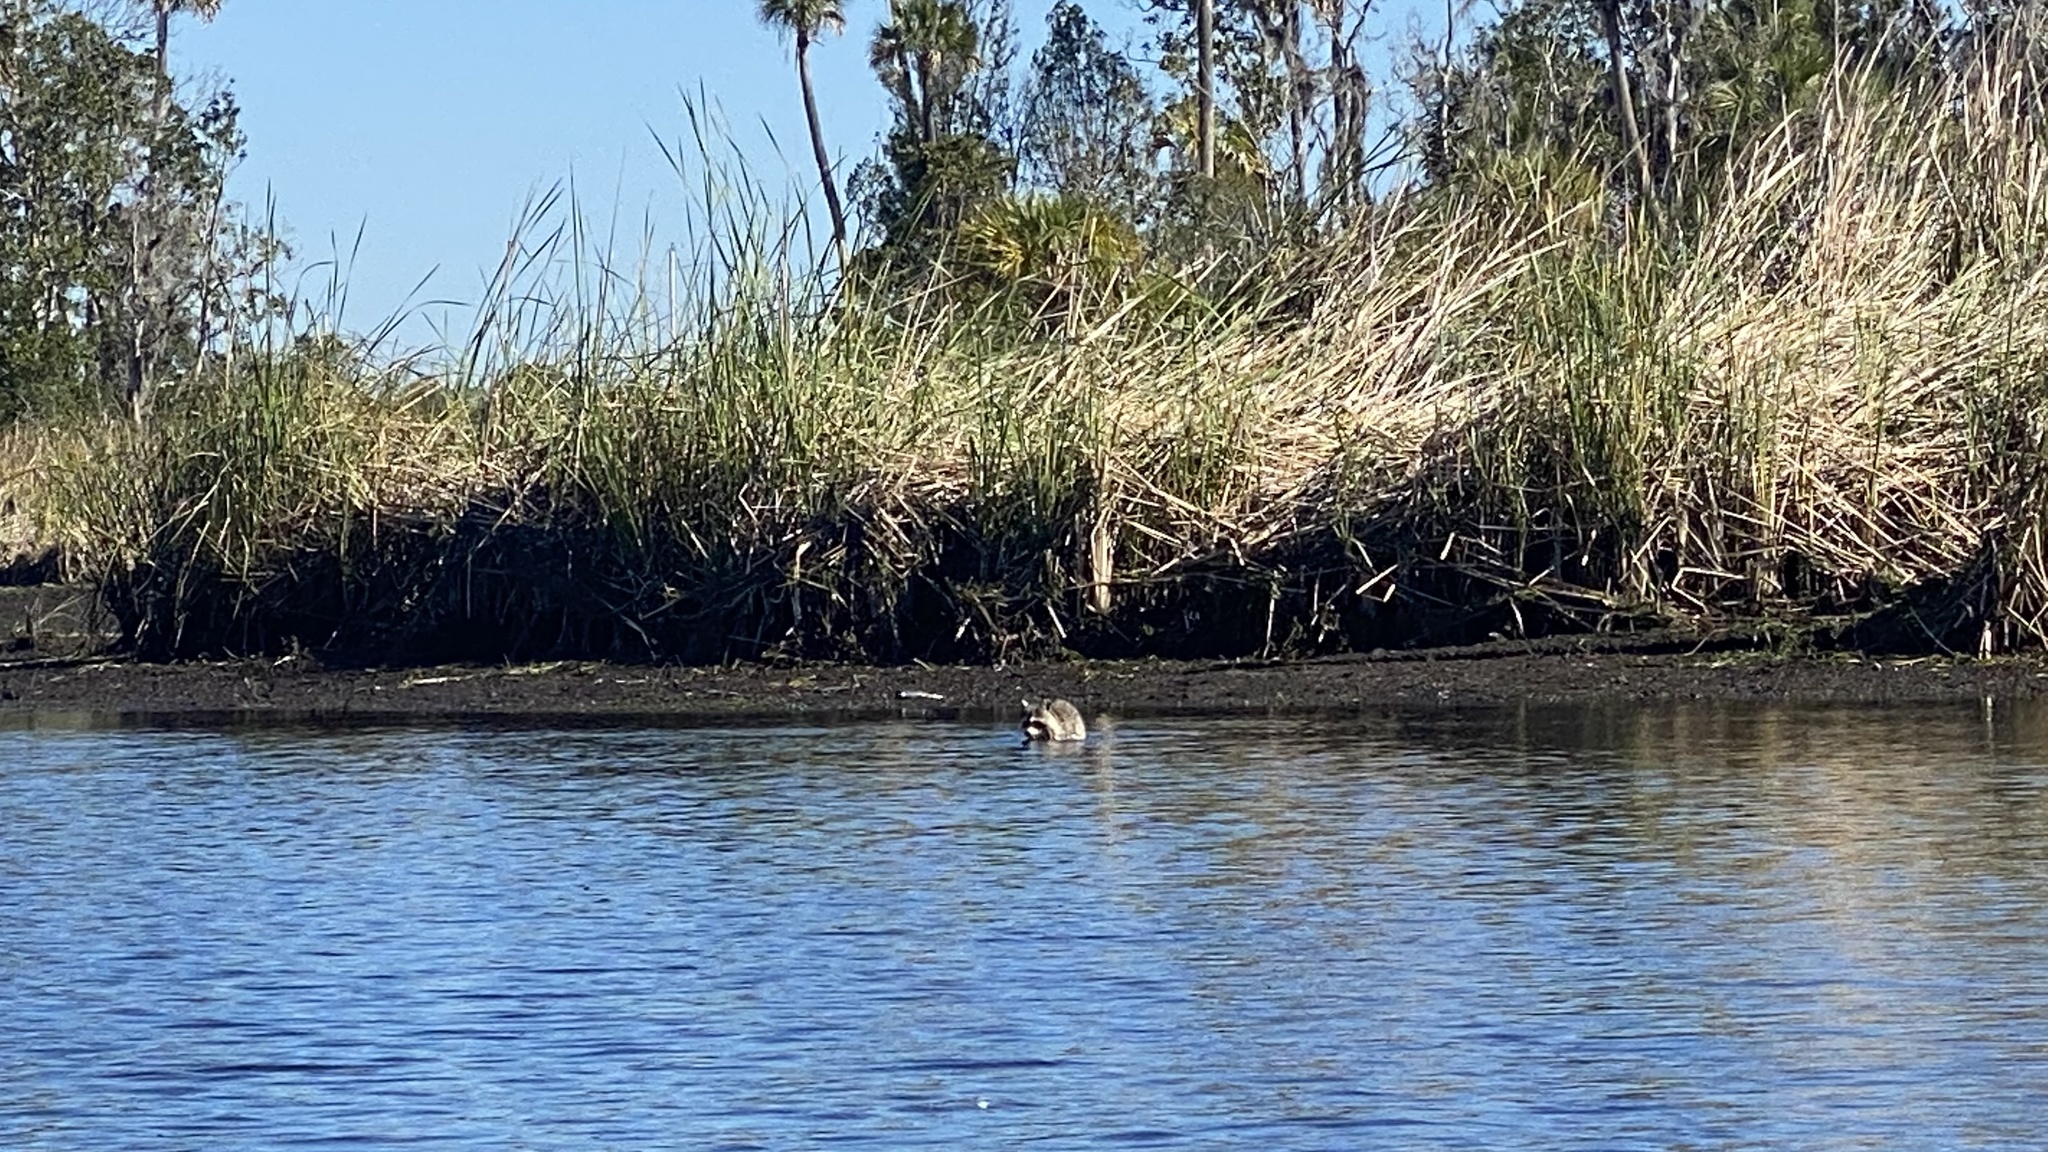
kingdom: Animalia
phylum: Chordata
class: Mammalia
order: Carnivora
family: Procyonidae
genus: Procyon
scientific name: Procyon lotor
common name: Raccoon
